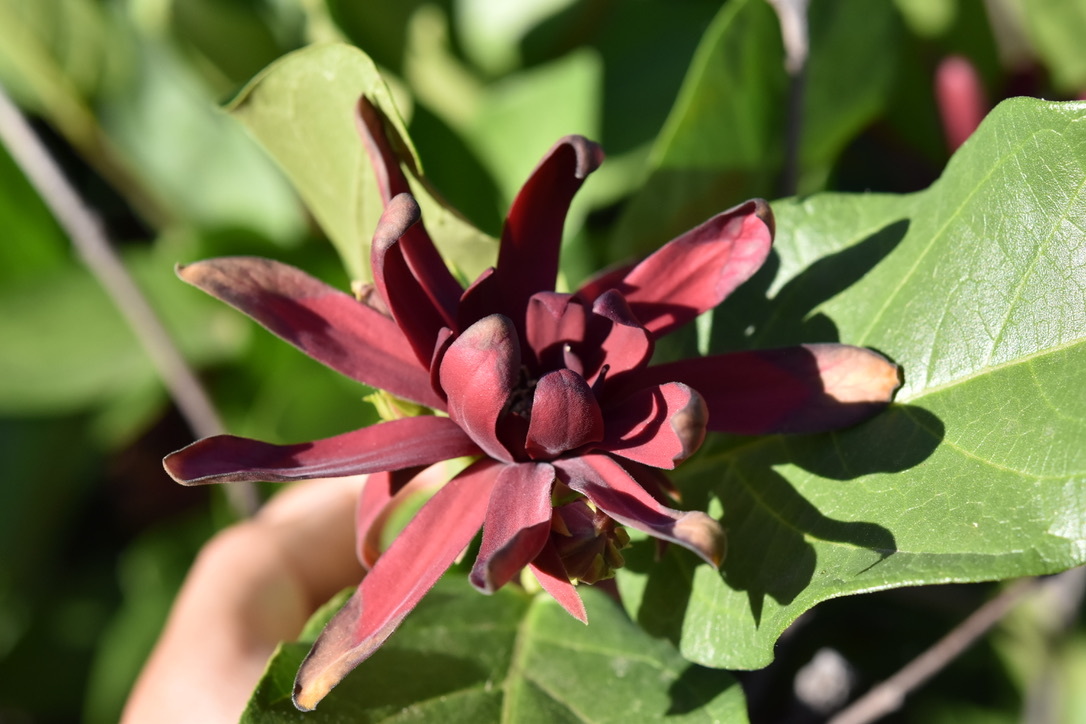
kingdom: Plantae
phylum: Tracheophyta
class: Magnoliopsida
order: Laurales
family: Calycanthaceae
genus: Calycanthus
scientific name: Calycanthus occidentalis
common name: California spicebush
